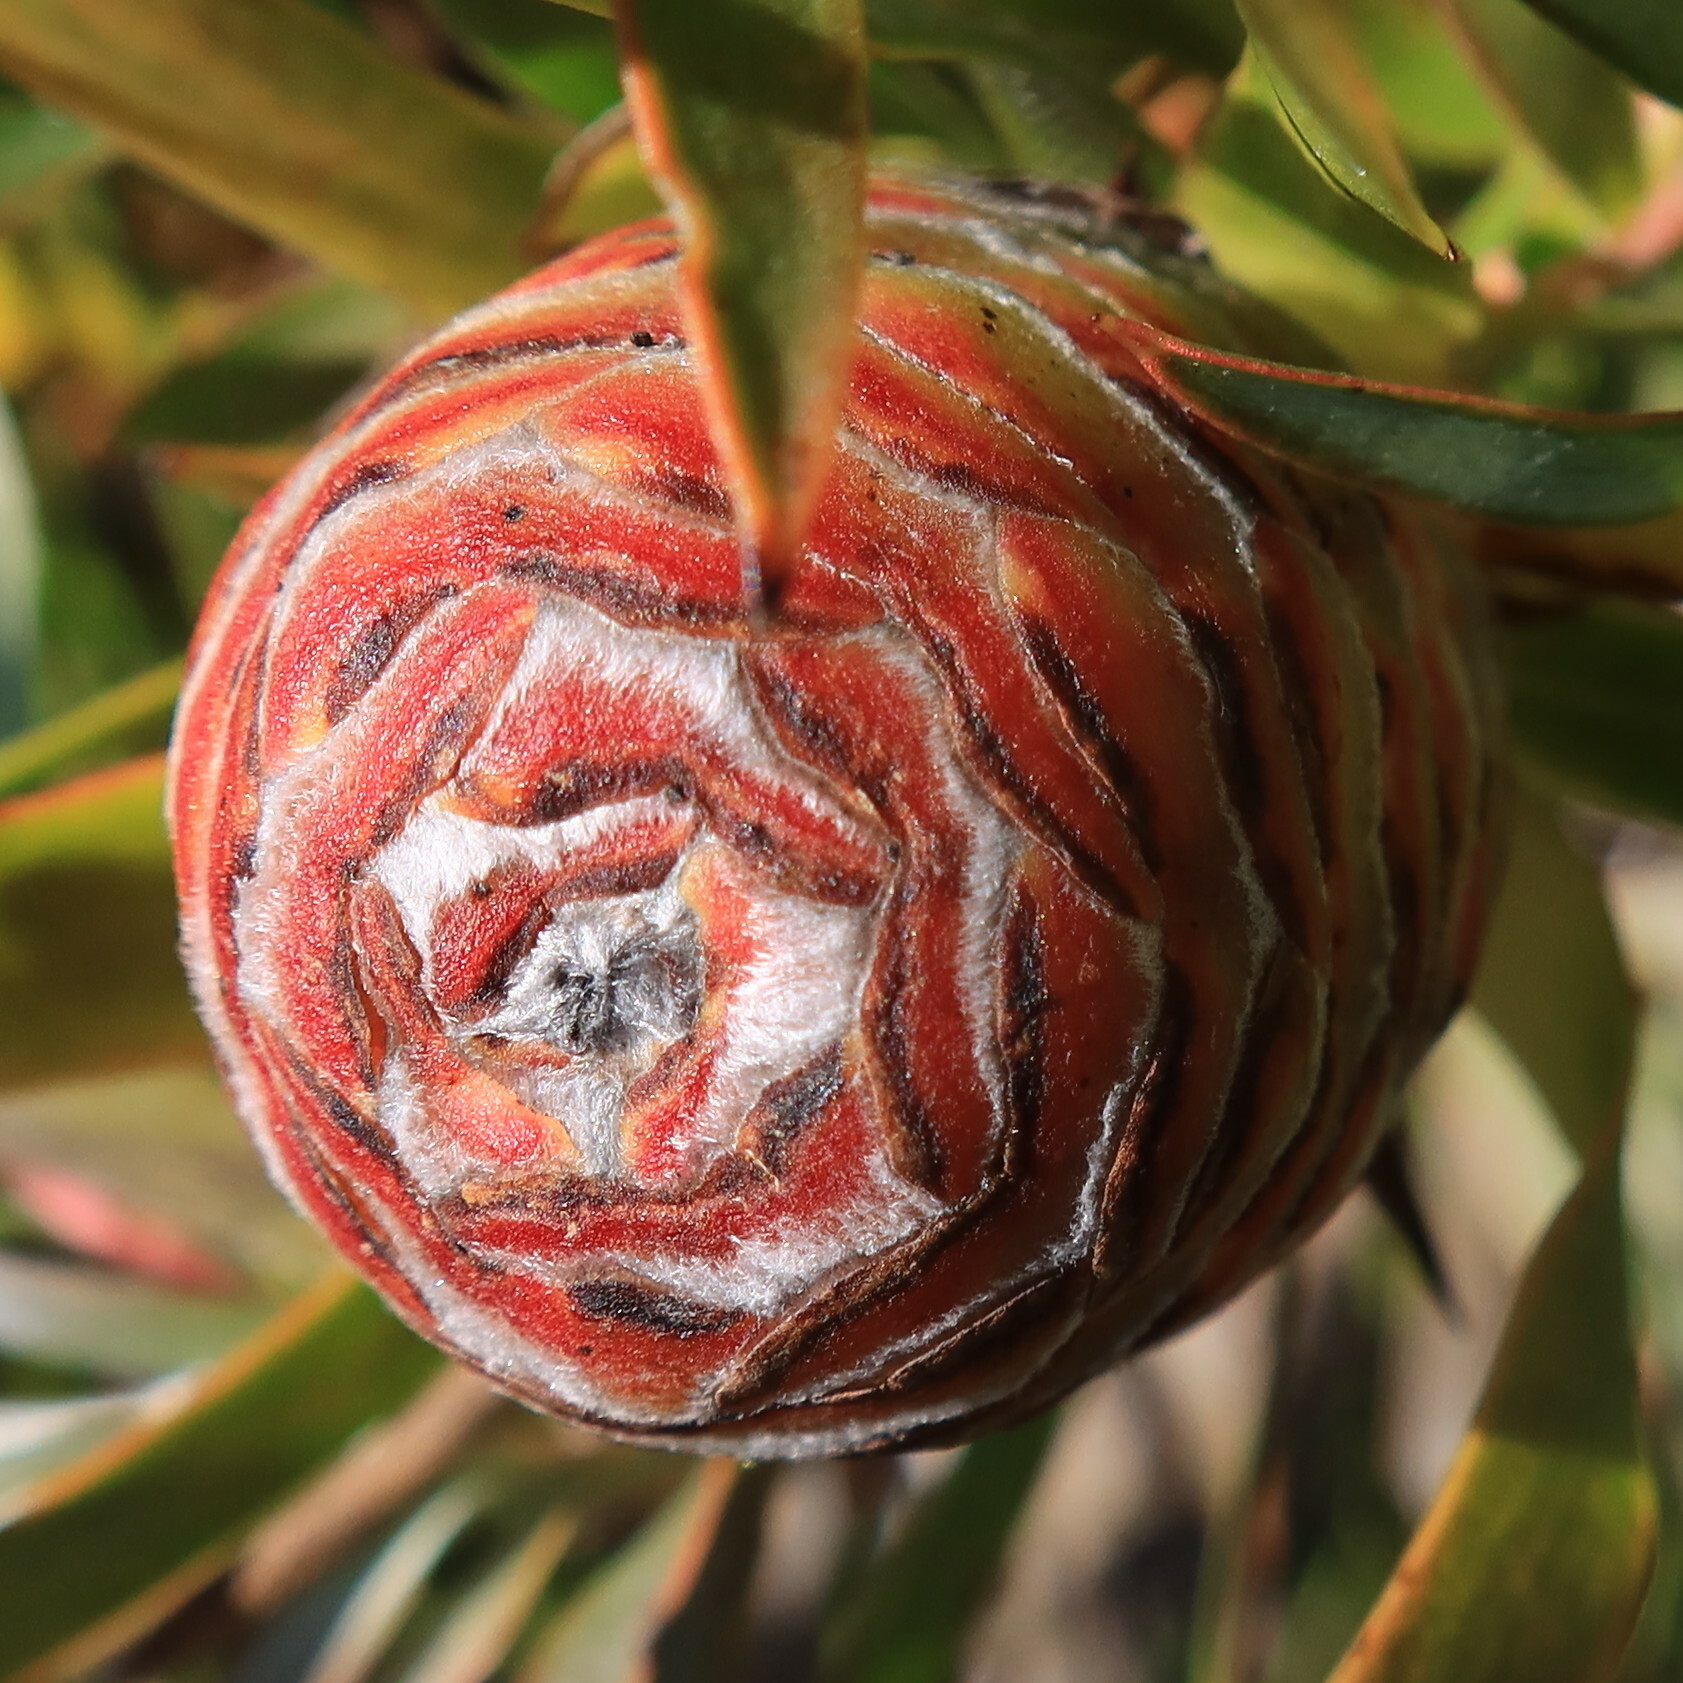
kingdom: Plantae
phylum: Tracheophyta
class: Magnoliopsida
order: Proteales
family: Proteaceae
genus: Leucadendron
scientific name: Leucadendron xanthoconus
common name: Sickle-leaf conebush
